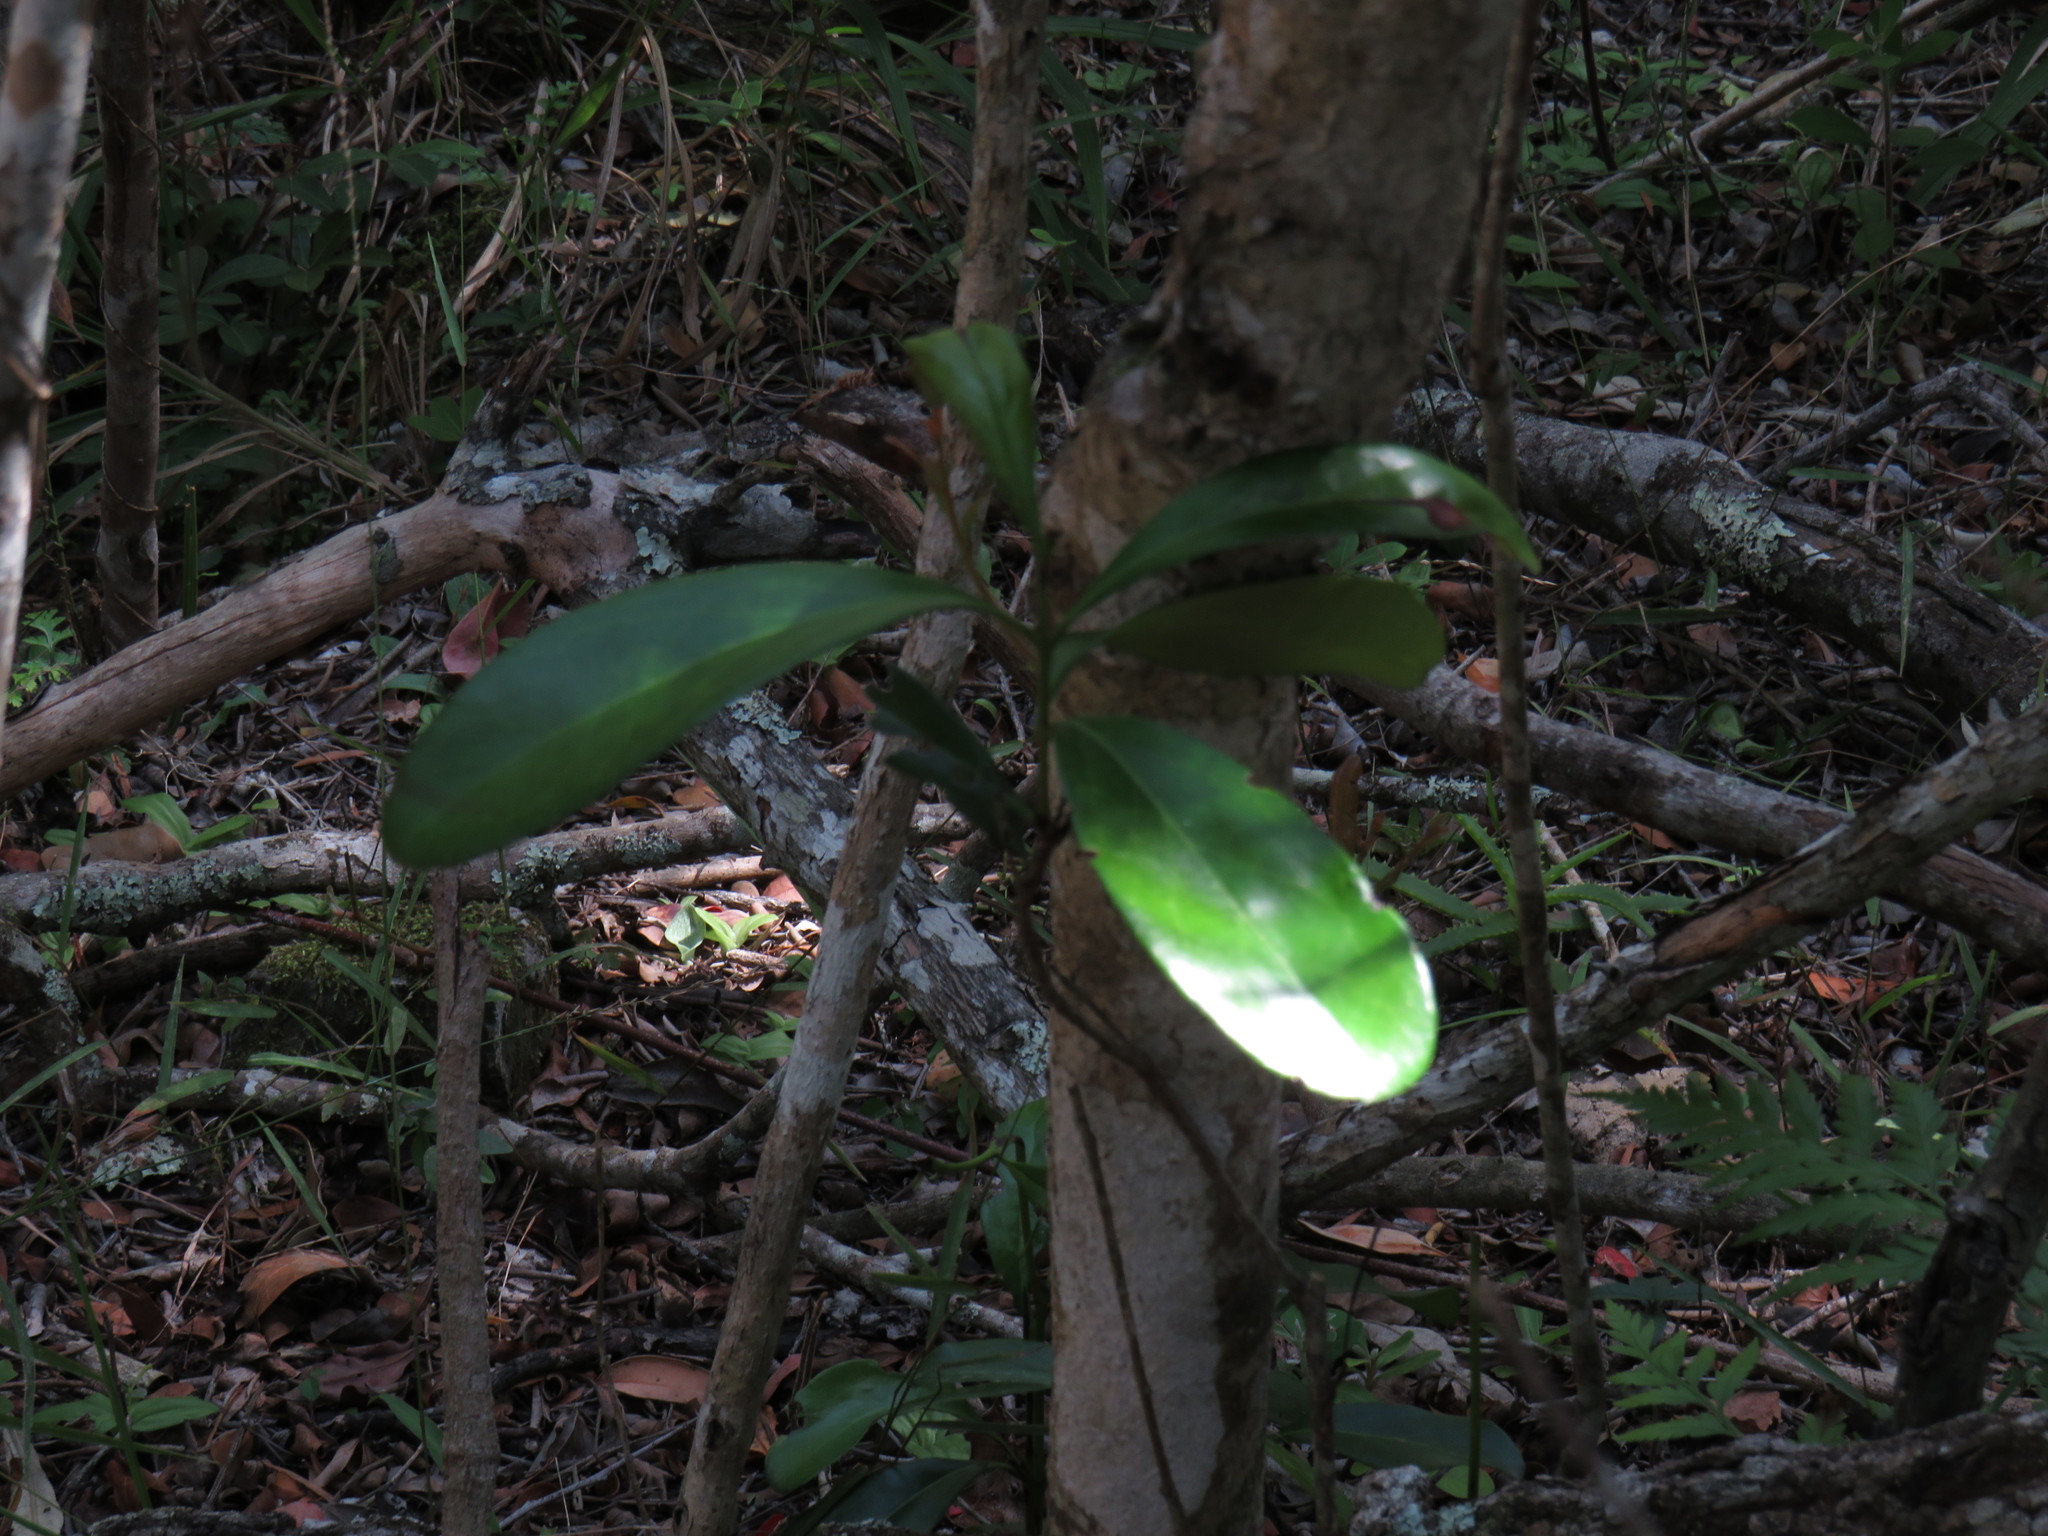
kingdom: Plantae
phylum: Tracheophyta
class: Magnoliopsida
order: Ericales
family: Ebenaceae
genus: Euclea
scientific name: Euclea racemosa
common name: Dune guarri
